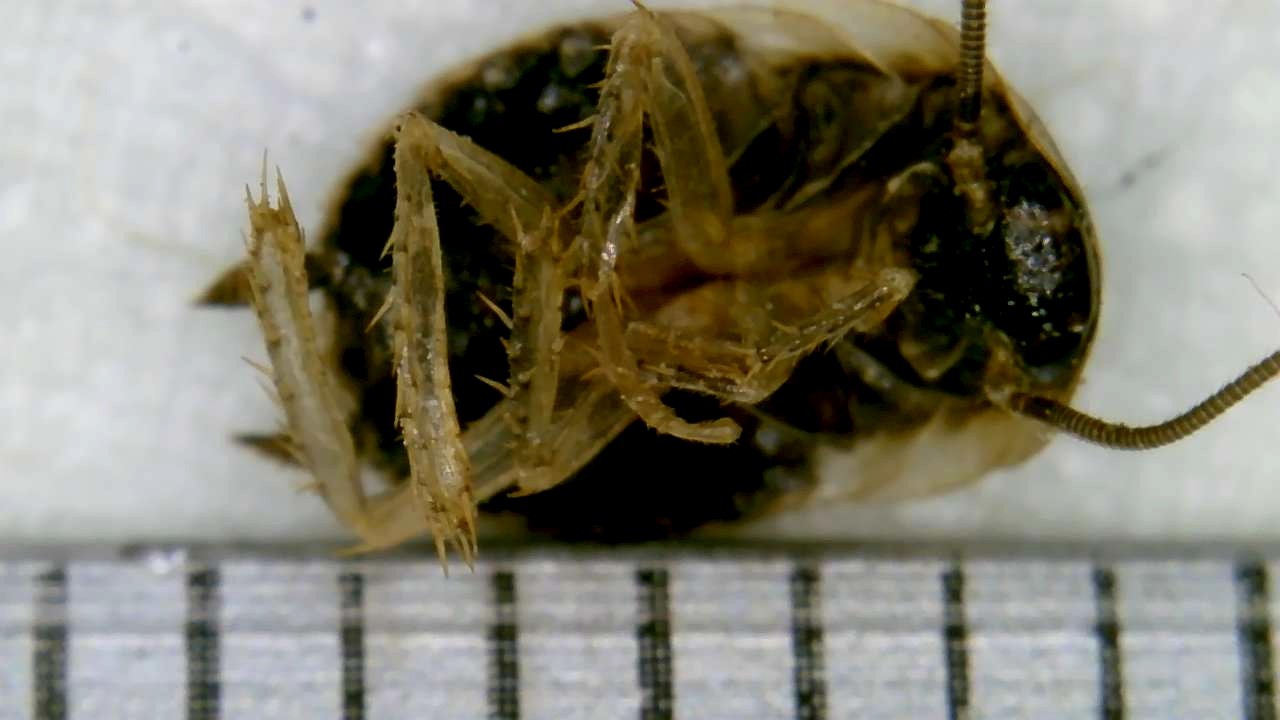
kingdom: Animalia
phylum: Arthropoda
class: Insecta
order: Blattodea
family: Ectobiidae
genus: Blattella
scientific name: Blattella germanica
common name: German cockroach
